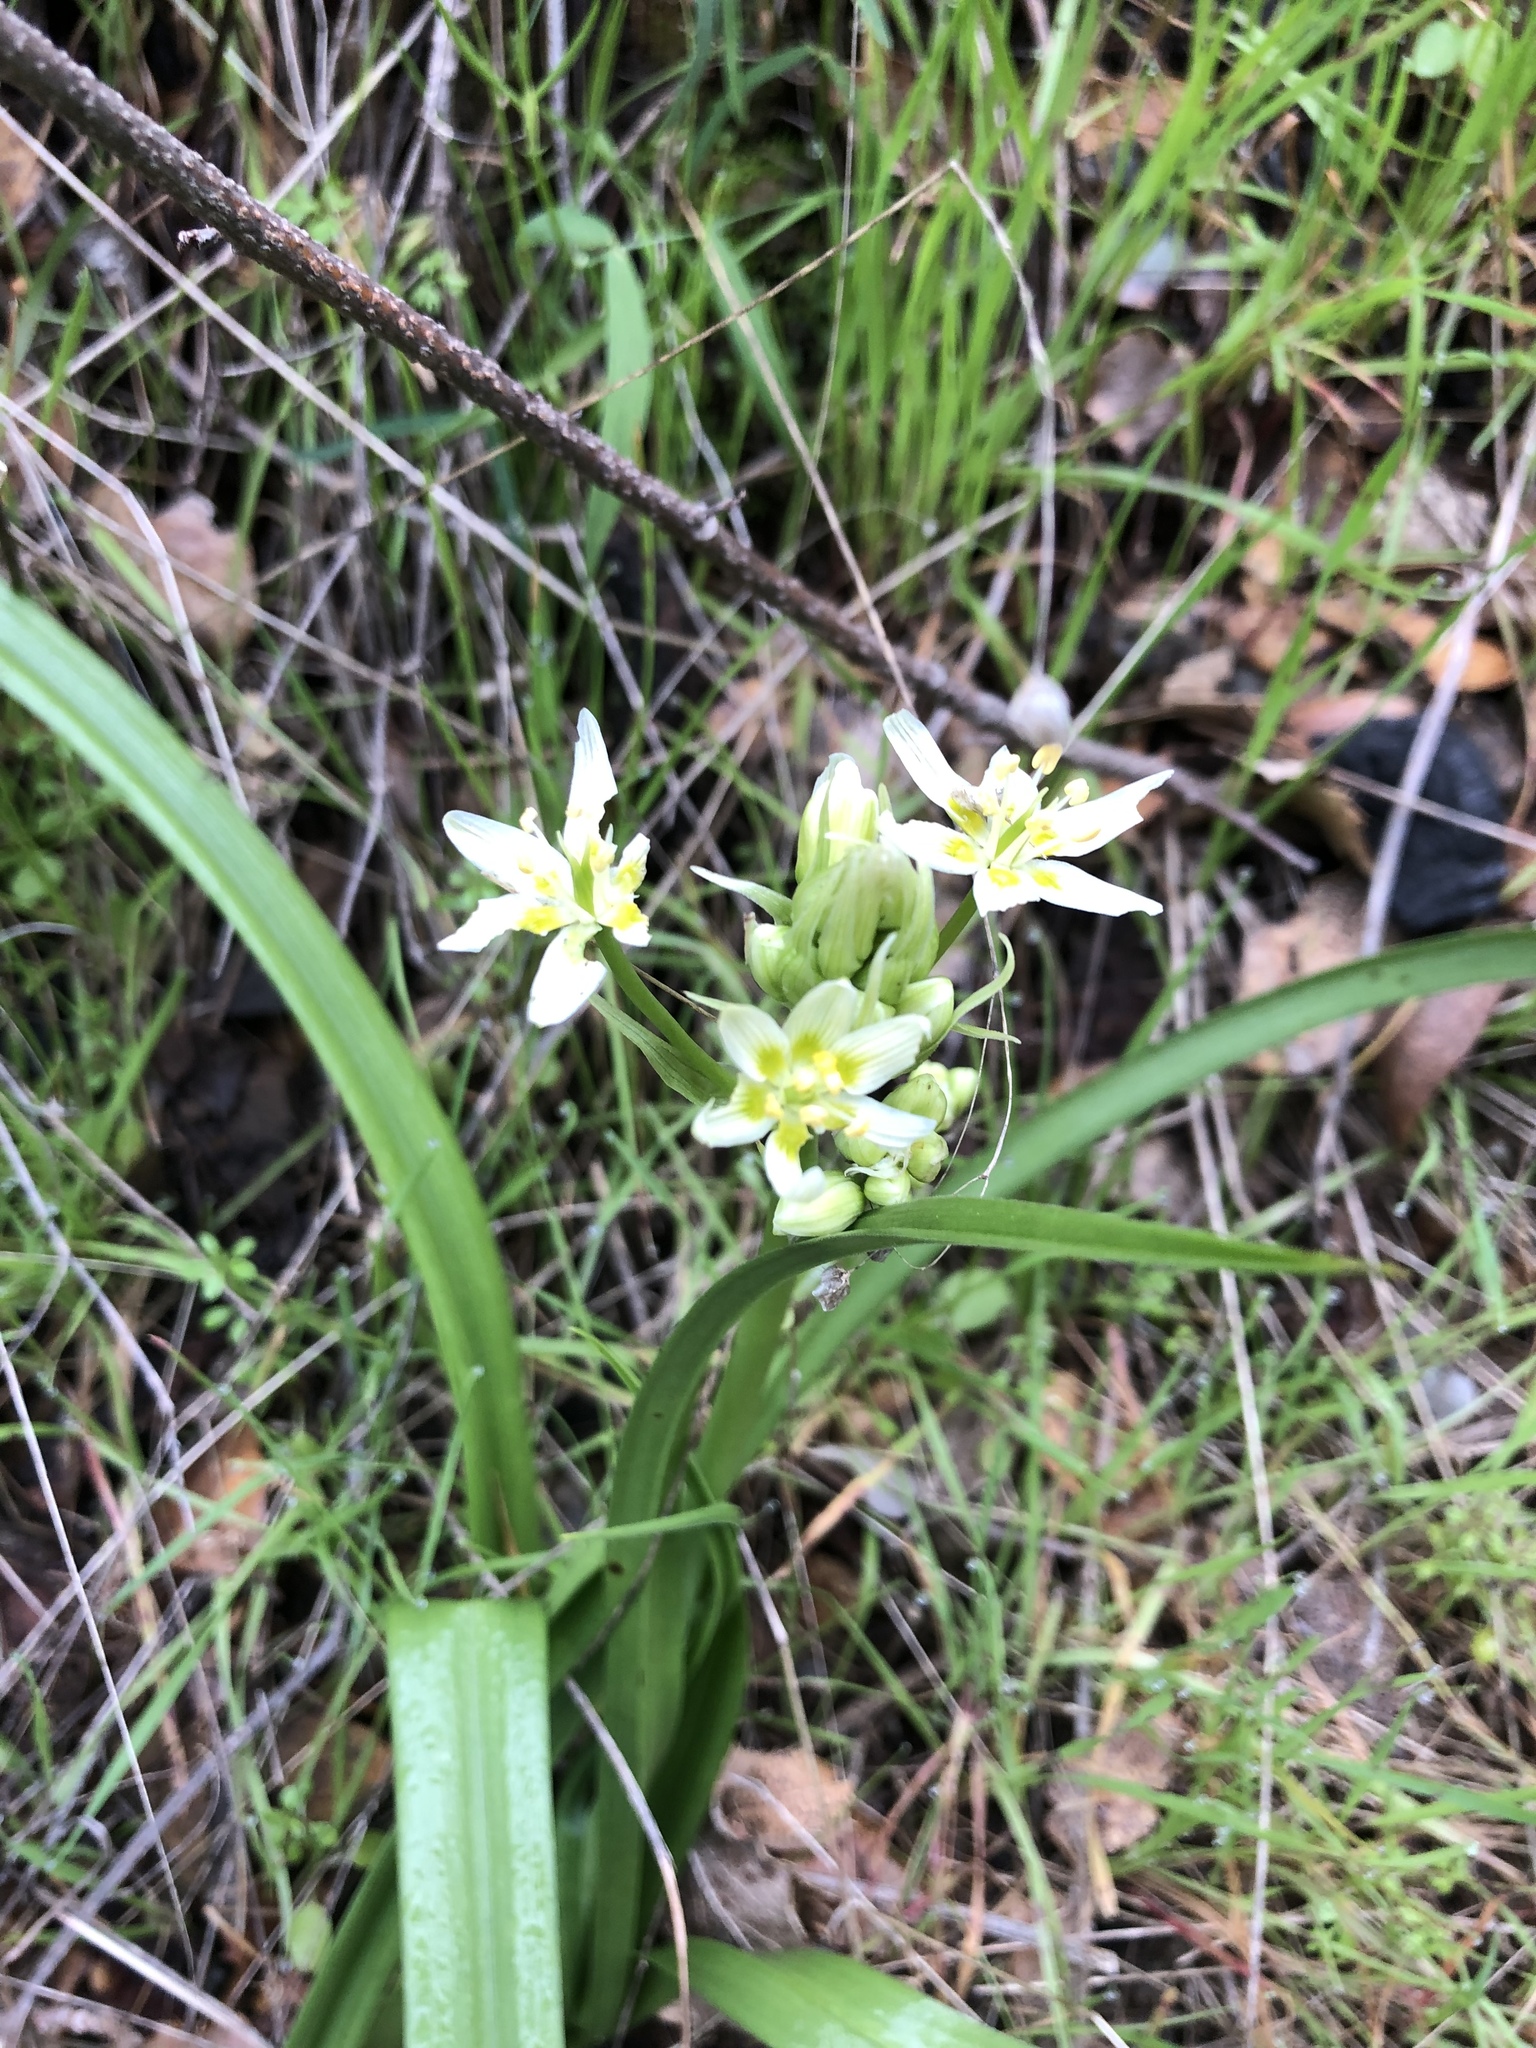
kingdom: Plantae
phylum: Tracheophyta
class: Liliopsida
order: Liliales
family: Melanthiaceae
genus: Toxicoscordion
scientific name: Toxicoscordion fremontii
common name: Fremont's death camas
